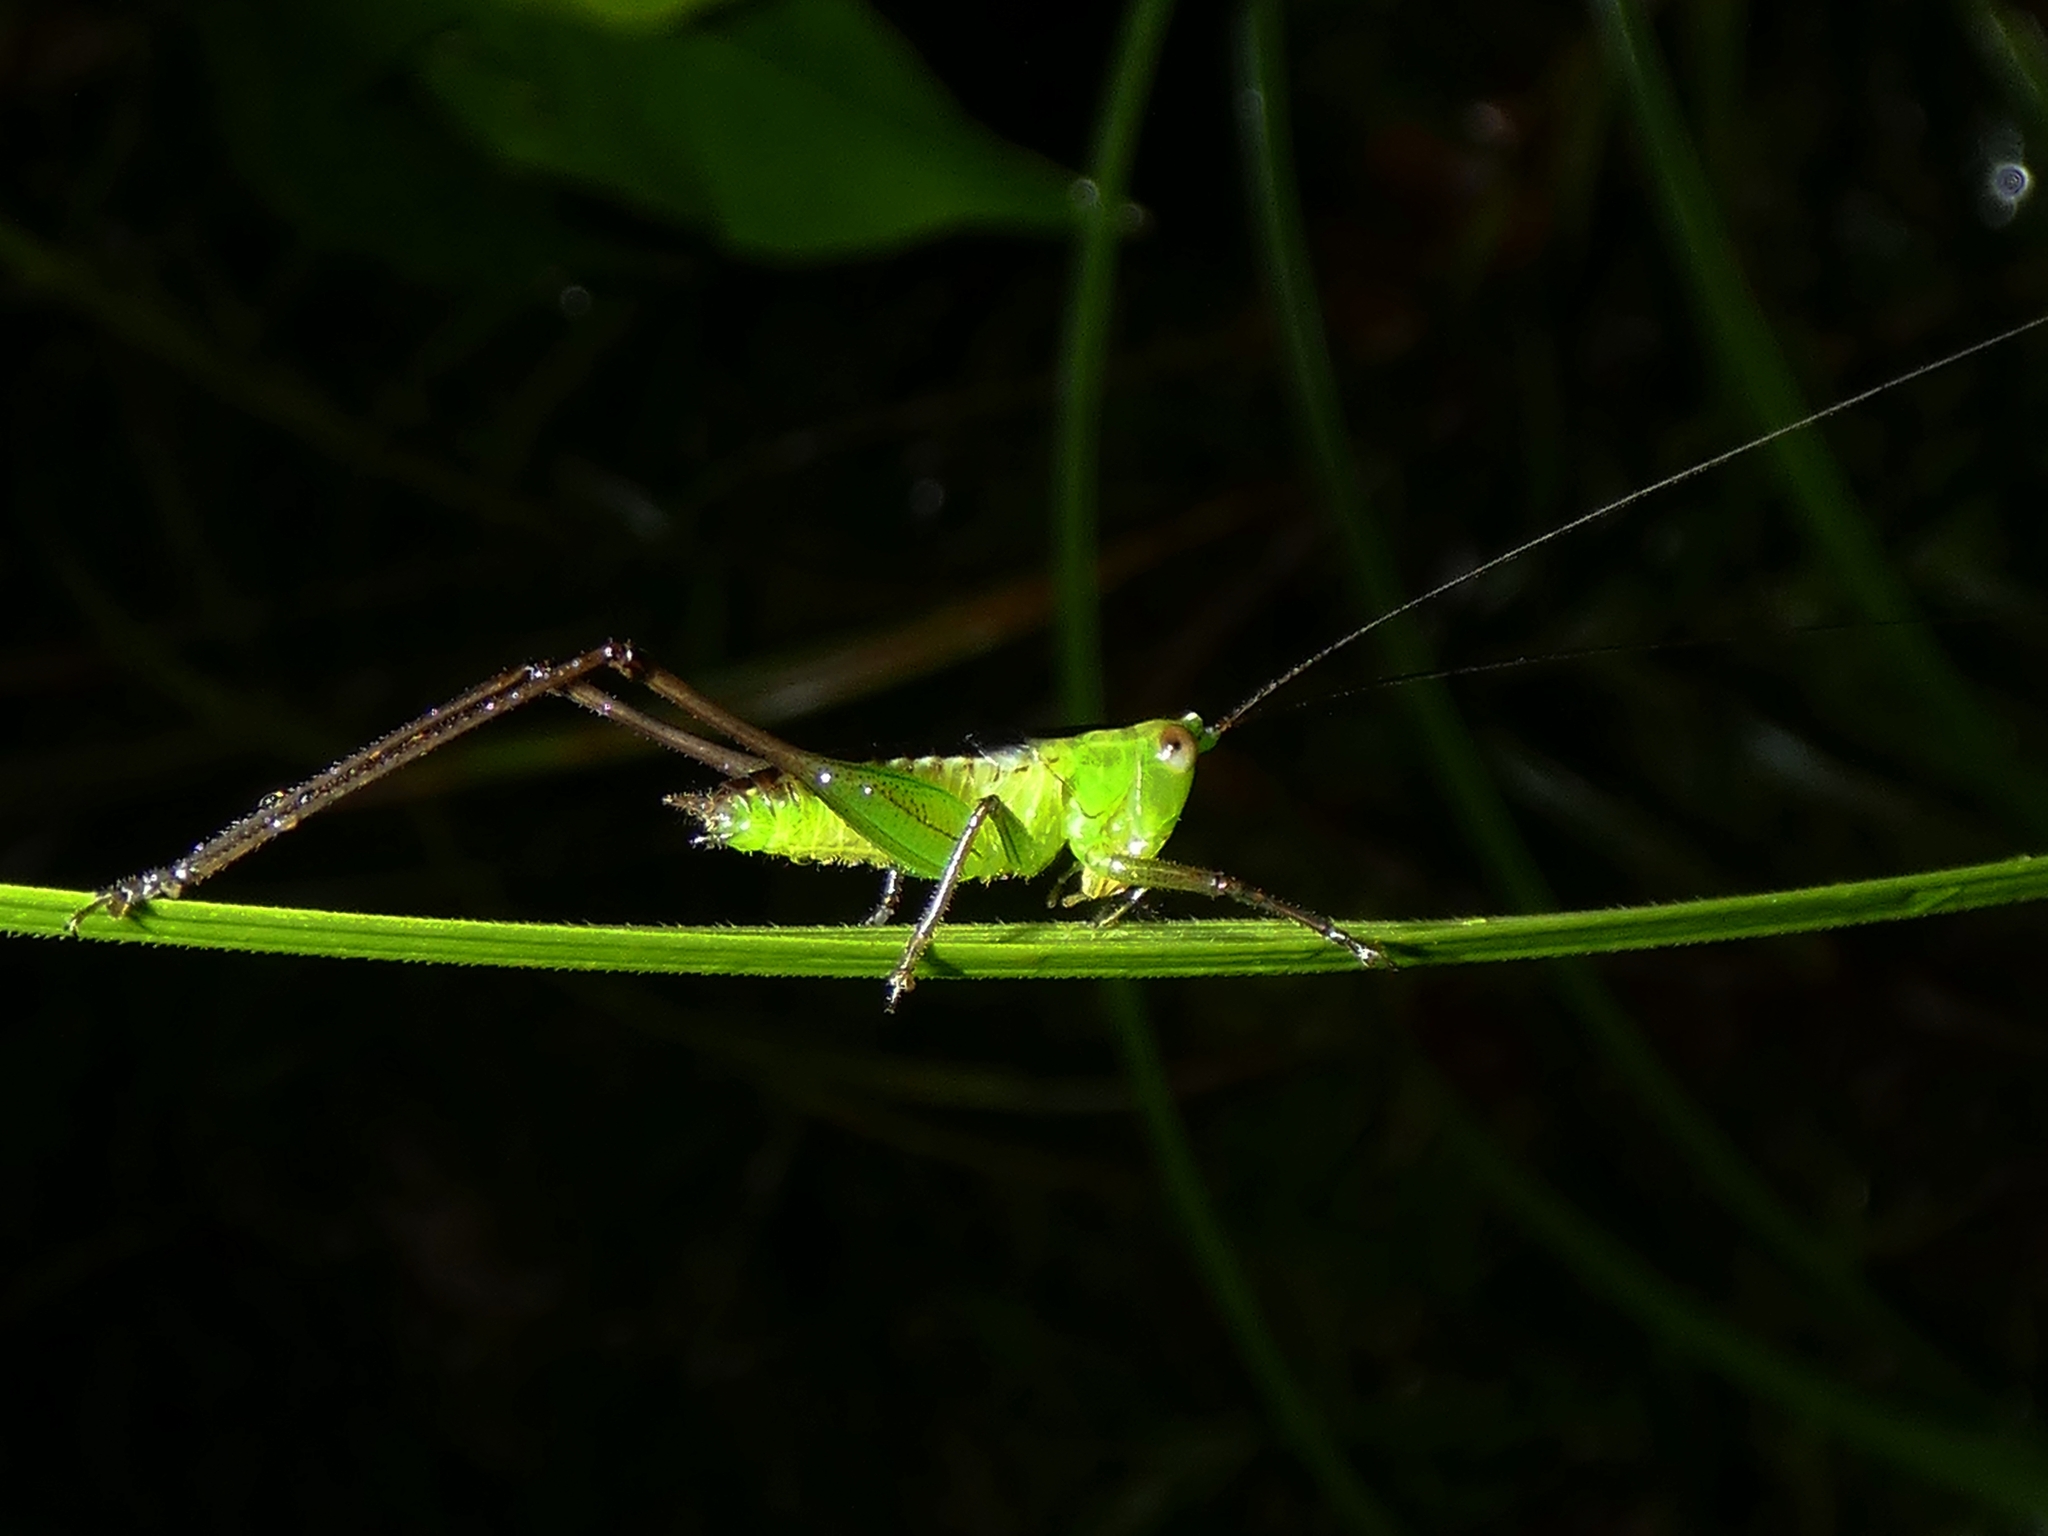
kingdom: Animalia
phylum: Arthropoda
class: Insecta
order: Orthoptera
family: Tettigoniidae
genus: Conocephalus
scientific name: Conocephalus semivittatus
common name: Blackish meadow katydid
